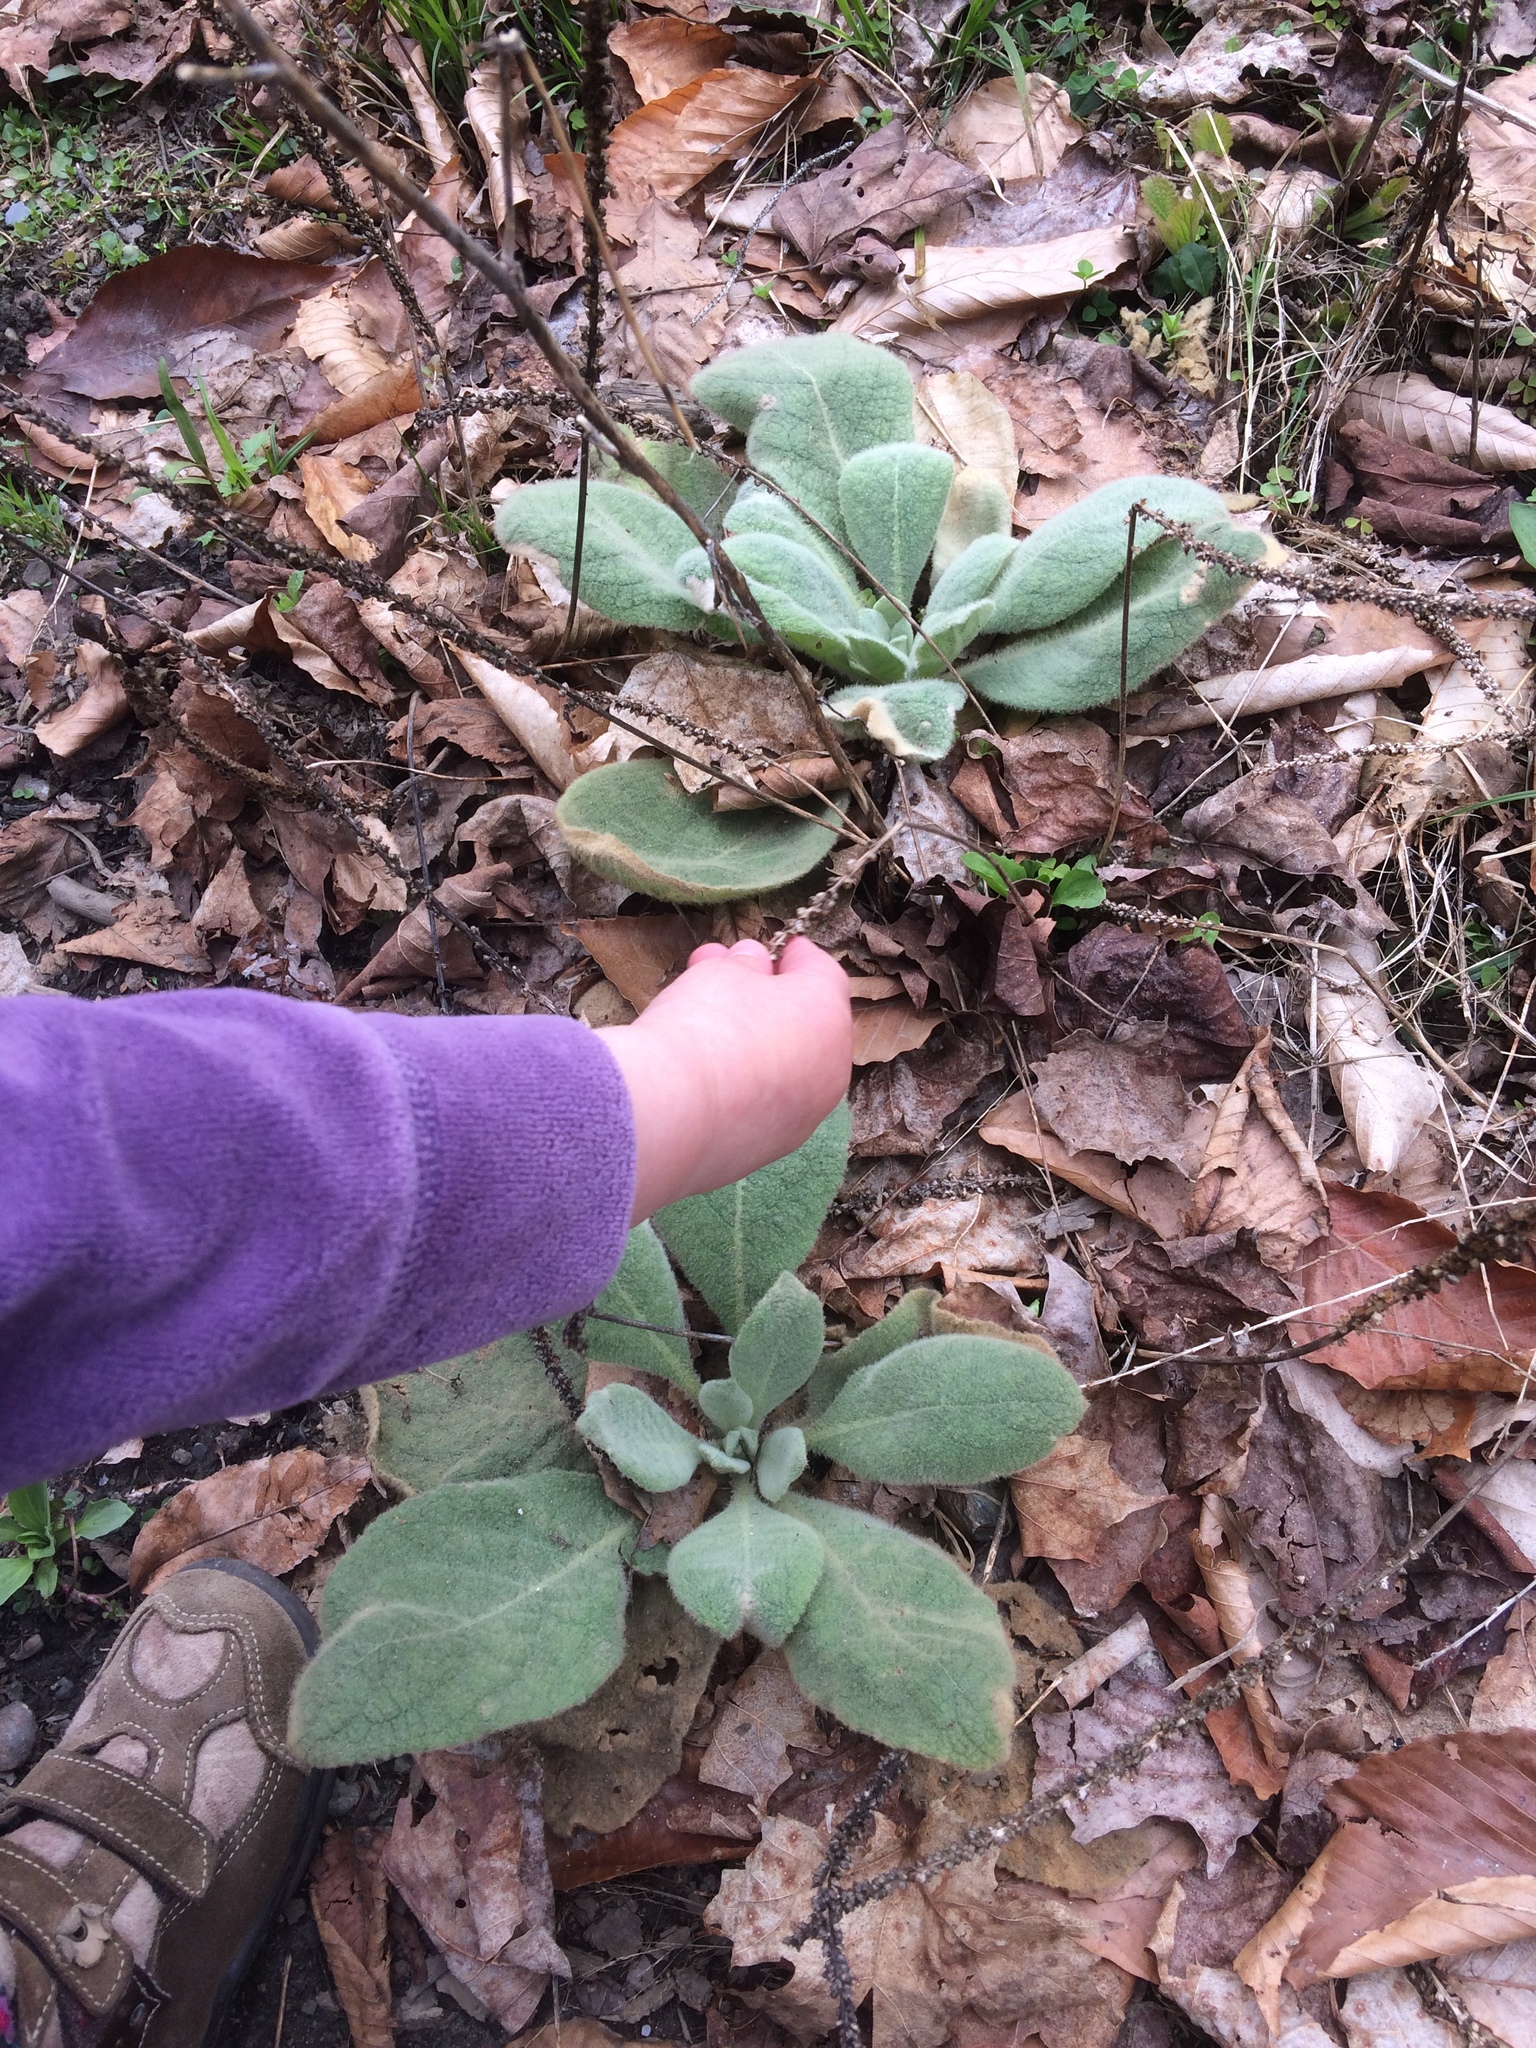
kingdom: Plantae
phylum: Tracheophyta
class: Magnoliopsida
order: Lamiales
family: Scrophulariaceae
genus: Verbascum
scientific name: Verbascum thapsus
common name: Common mullein
